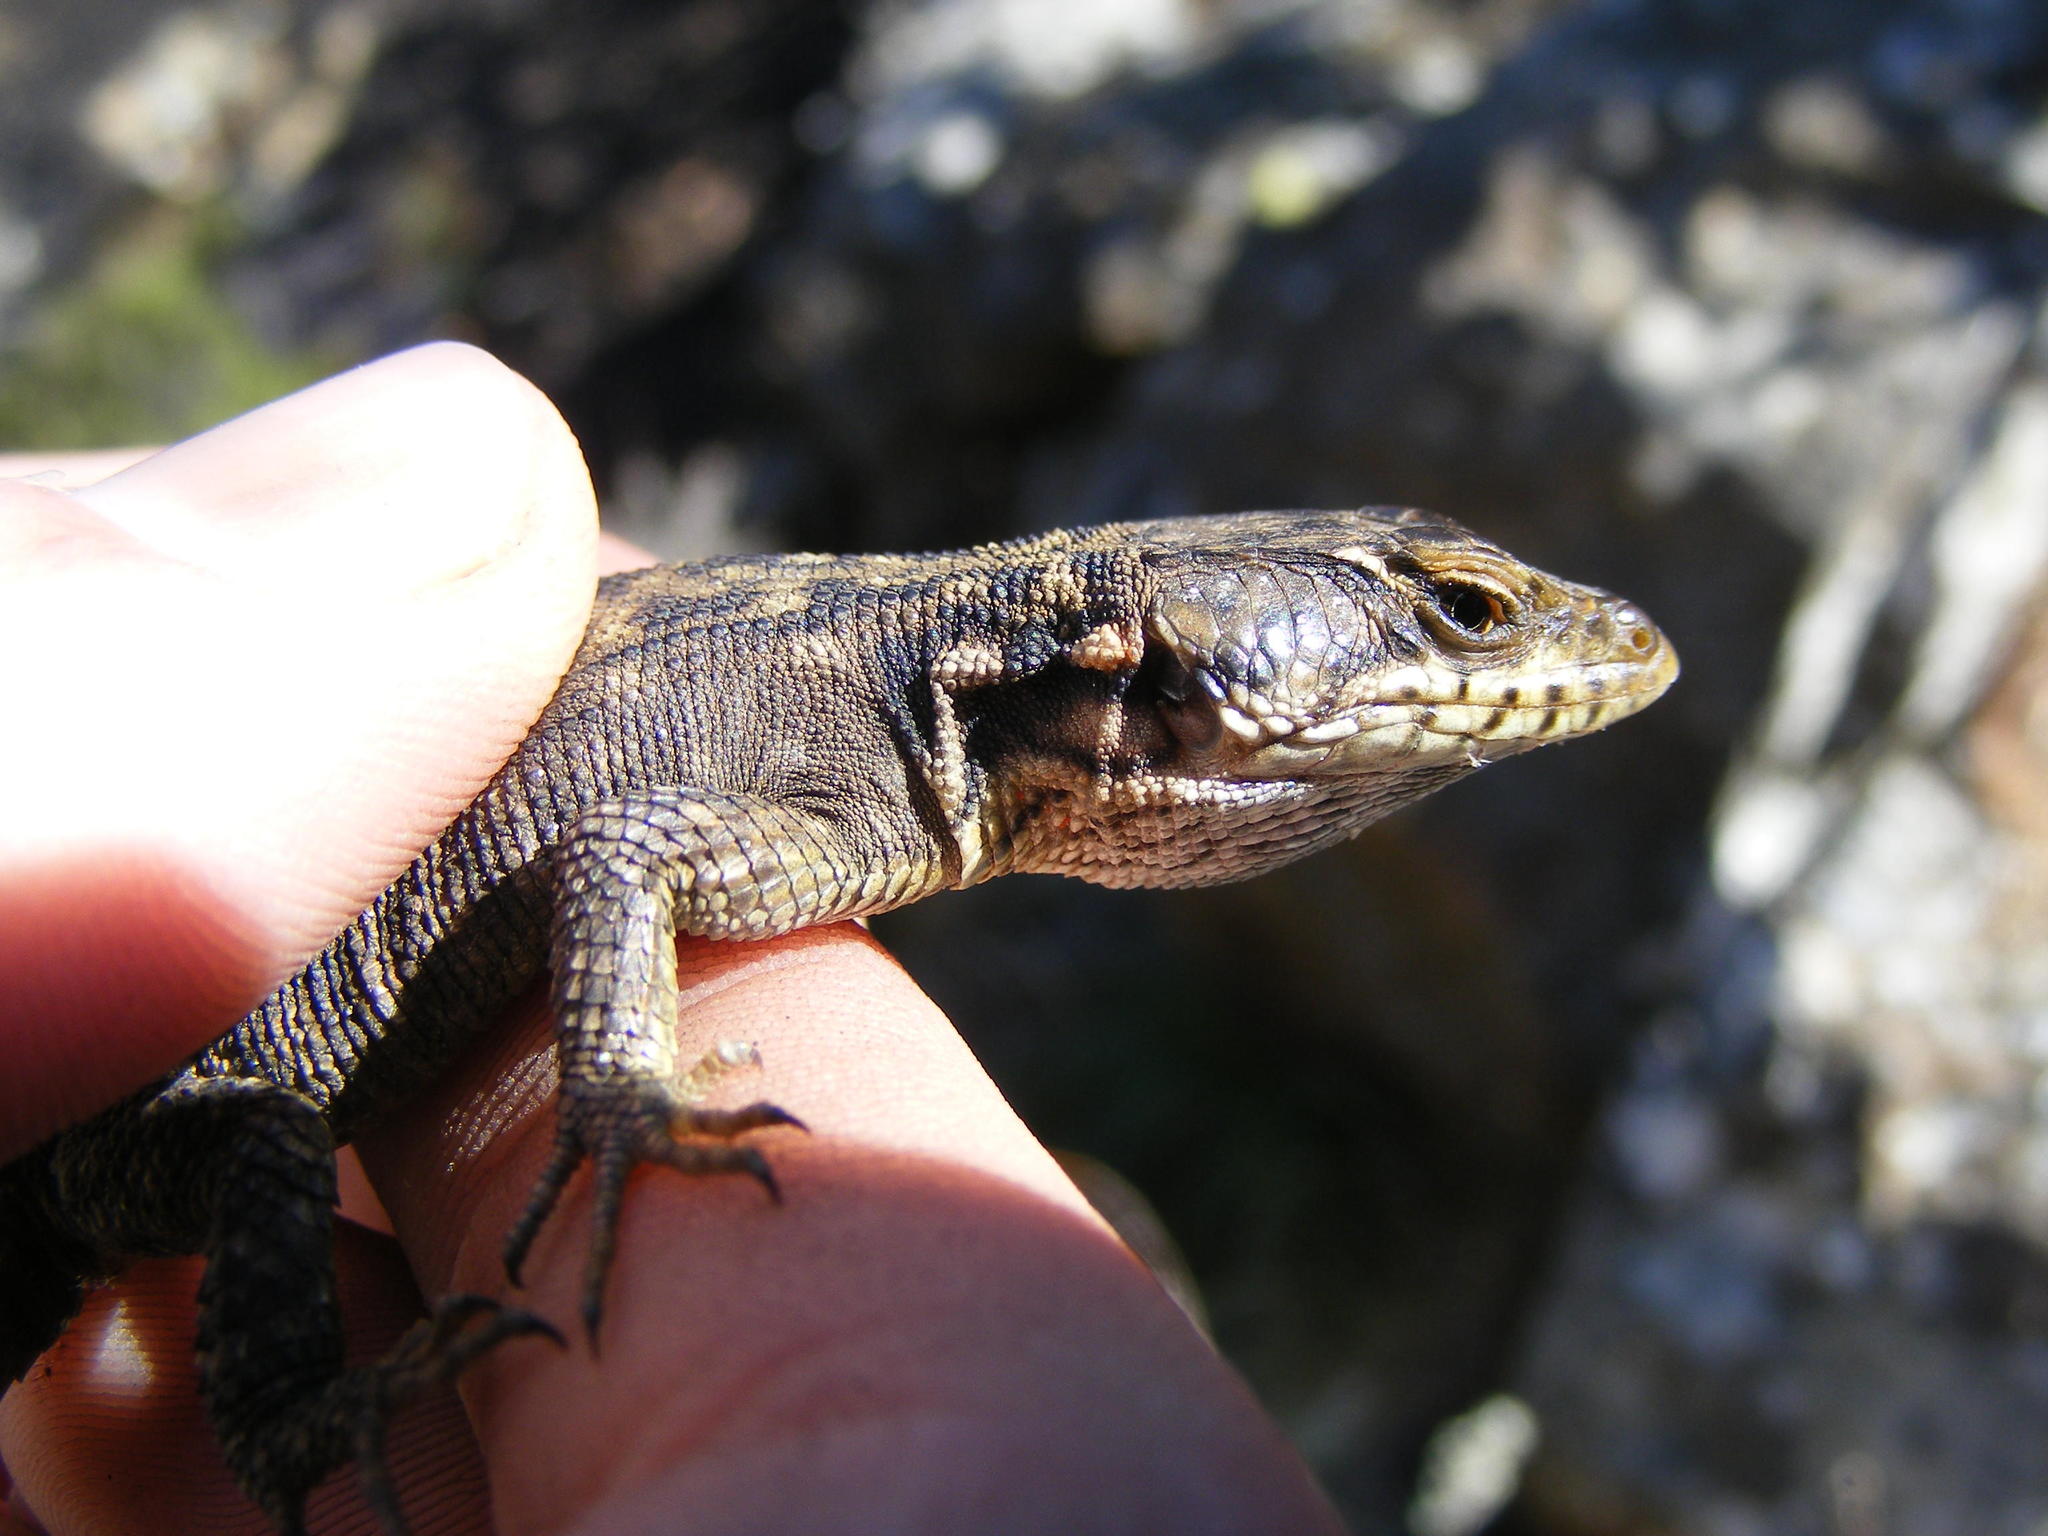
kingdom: Animalia
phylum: Chordata
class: Squamata
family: Cordylidae
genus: Pseudocordylus
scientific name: Pseudocordylus subviridis
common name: Drakensberg crag lizard
